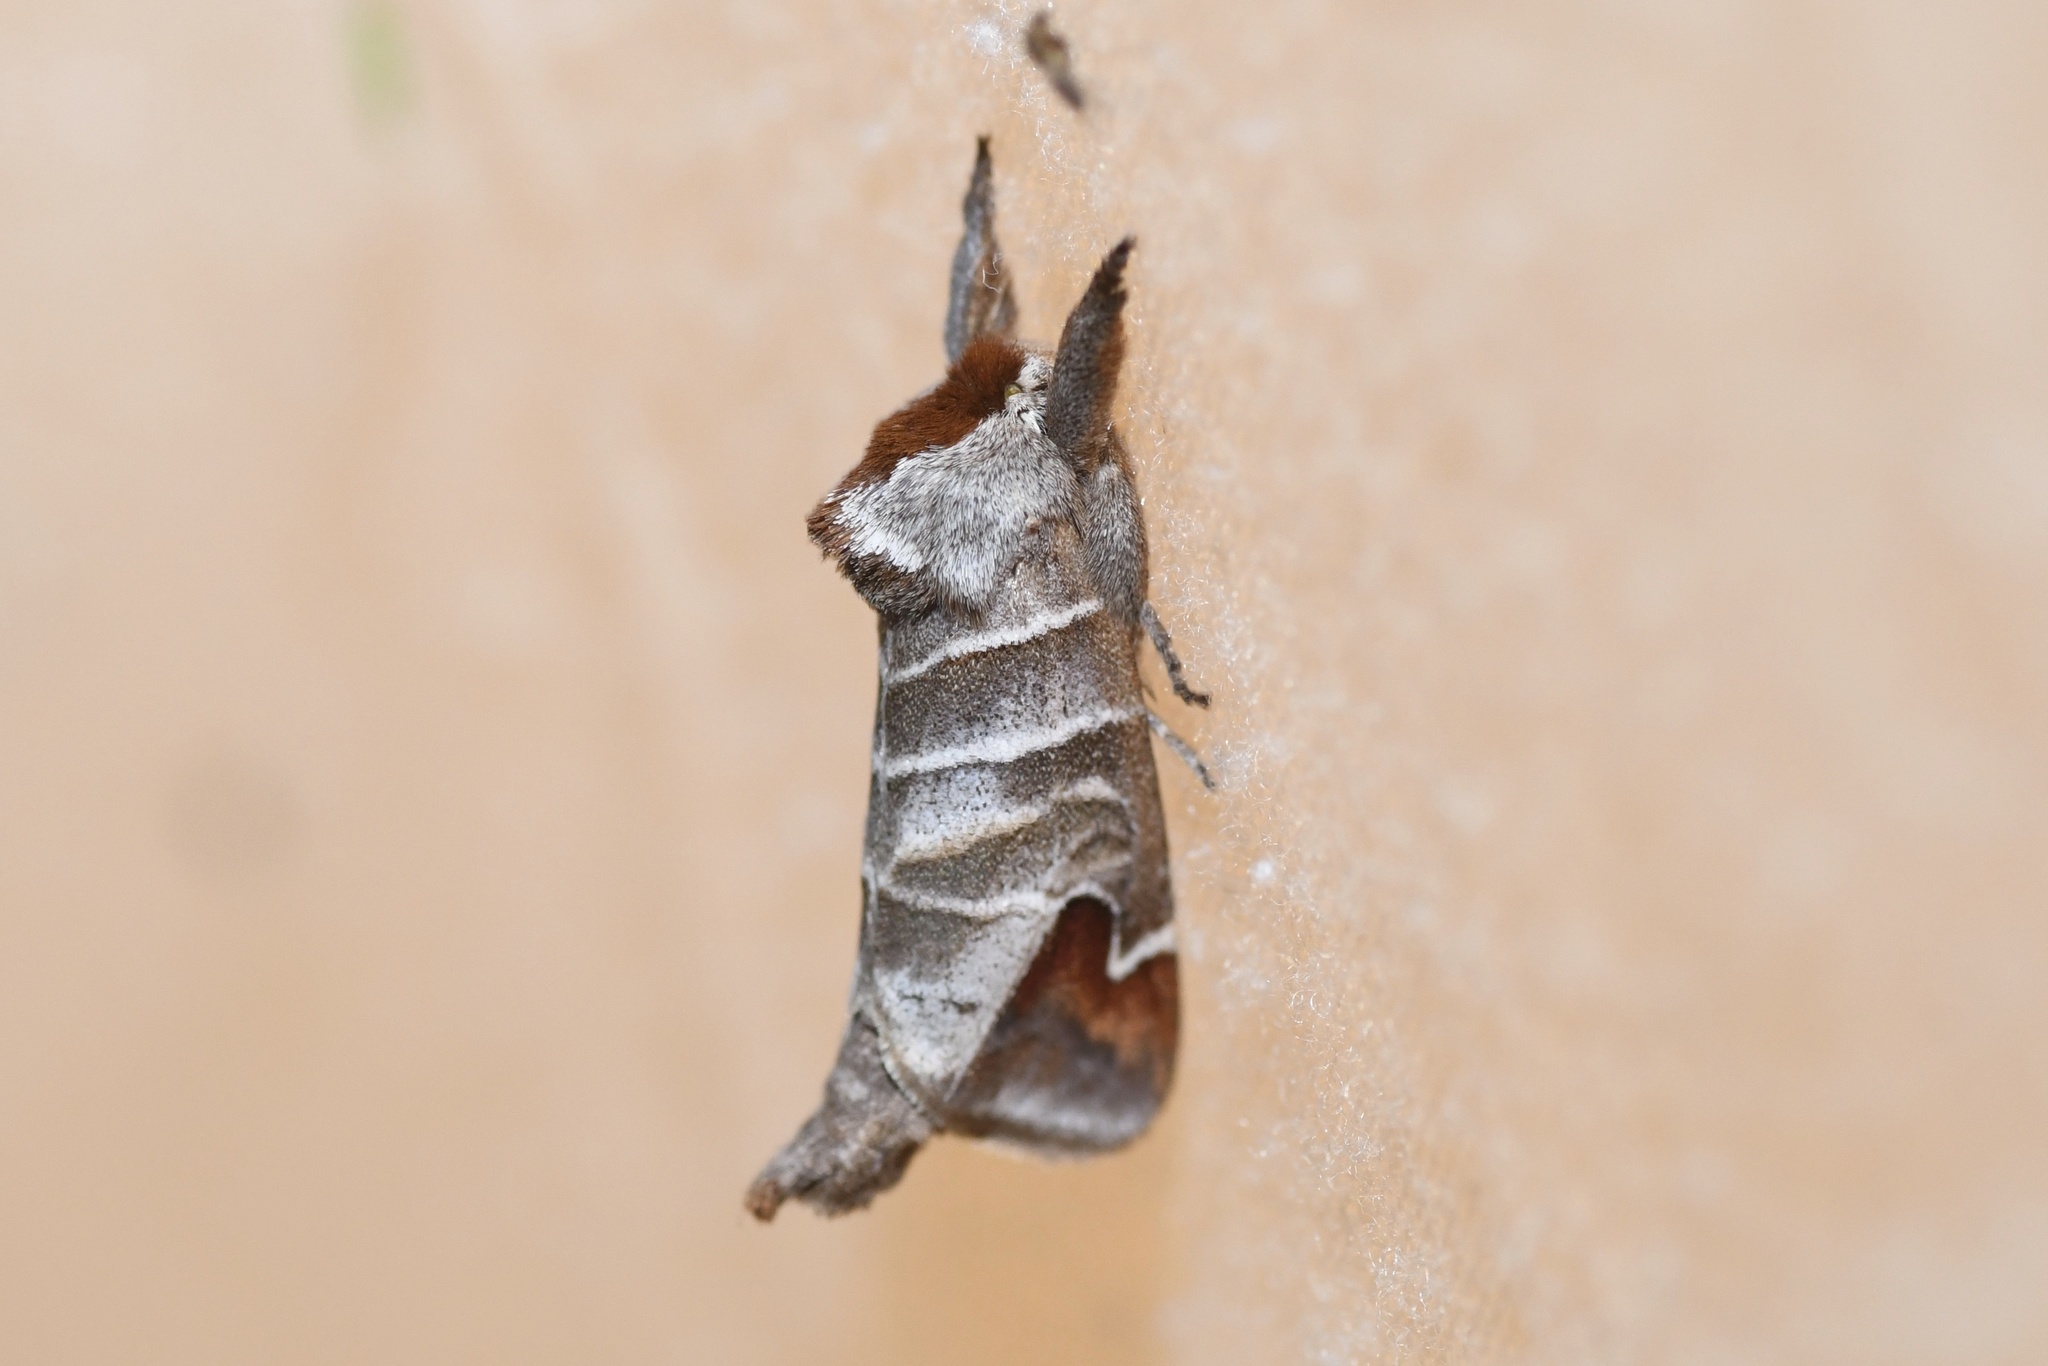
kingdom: Animalia
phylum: Arthropoda
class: Insecta
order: Lepidoptera
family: Notodontidae
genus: Clostera
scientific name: Clostera albosigma
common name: Sigmoid prominent
